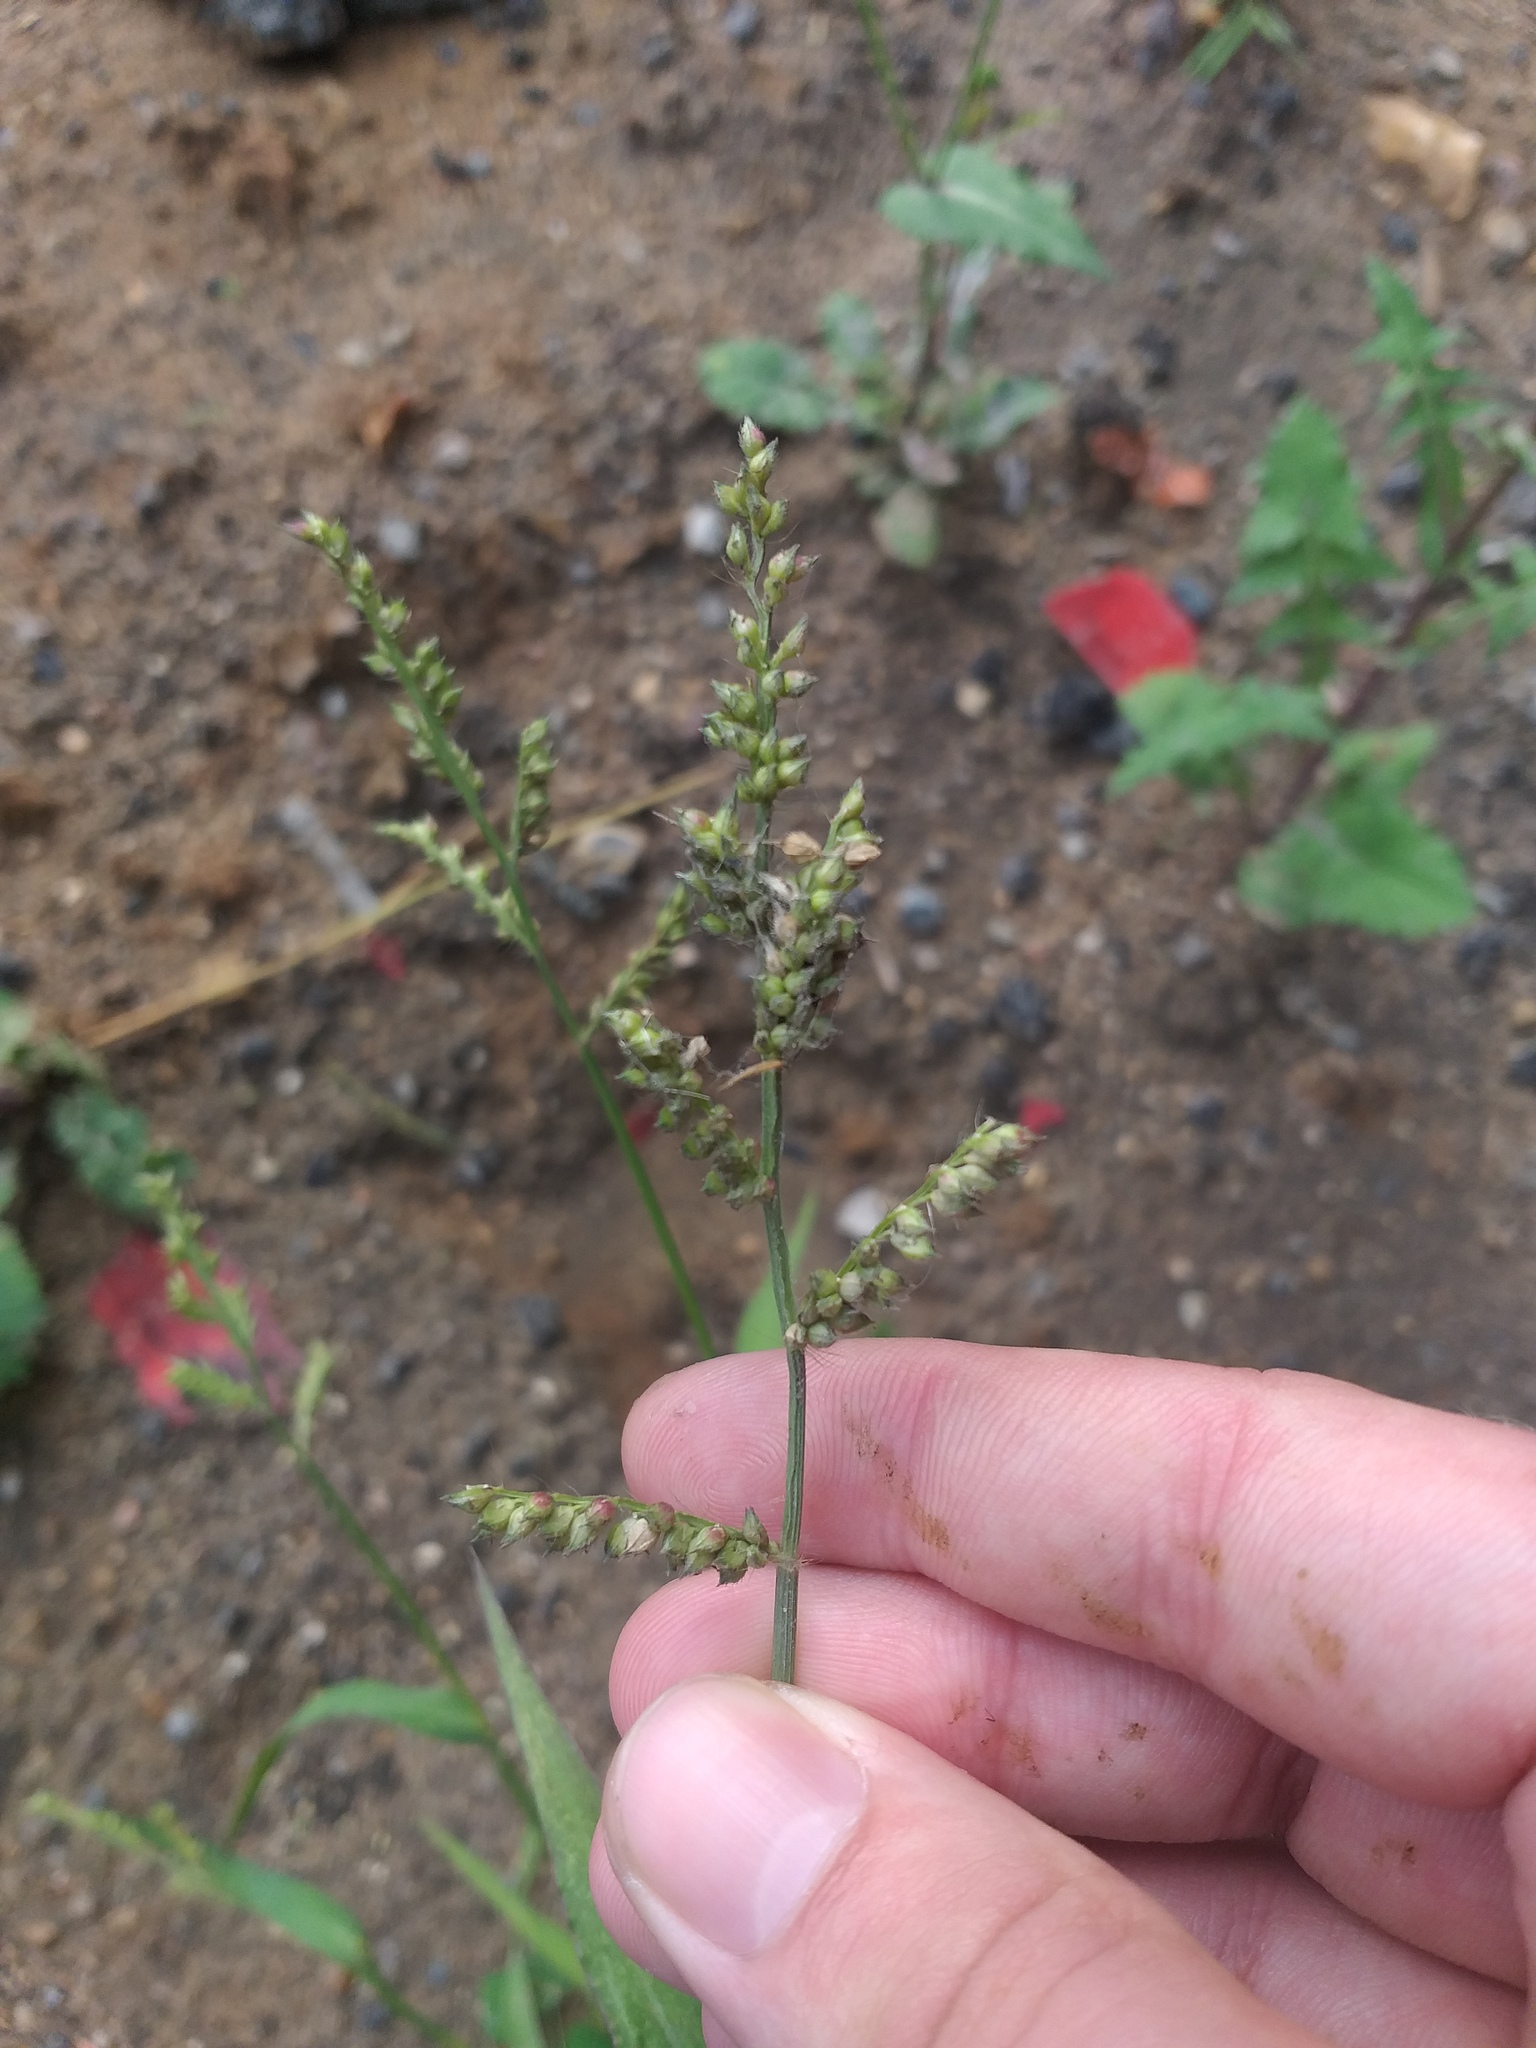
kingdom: Plantae
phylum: Tracheophyta
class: Liliopsida
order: Poales
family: Poaceae
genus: Echinochloa
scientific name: Echinochloa crus-galli
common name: Cockspur
